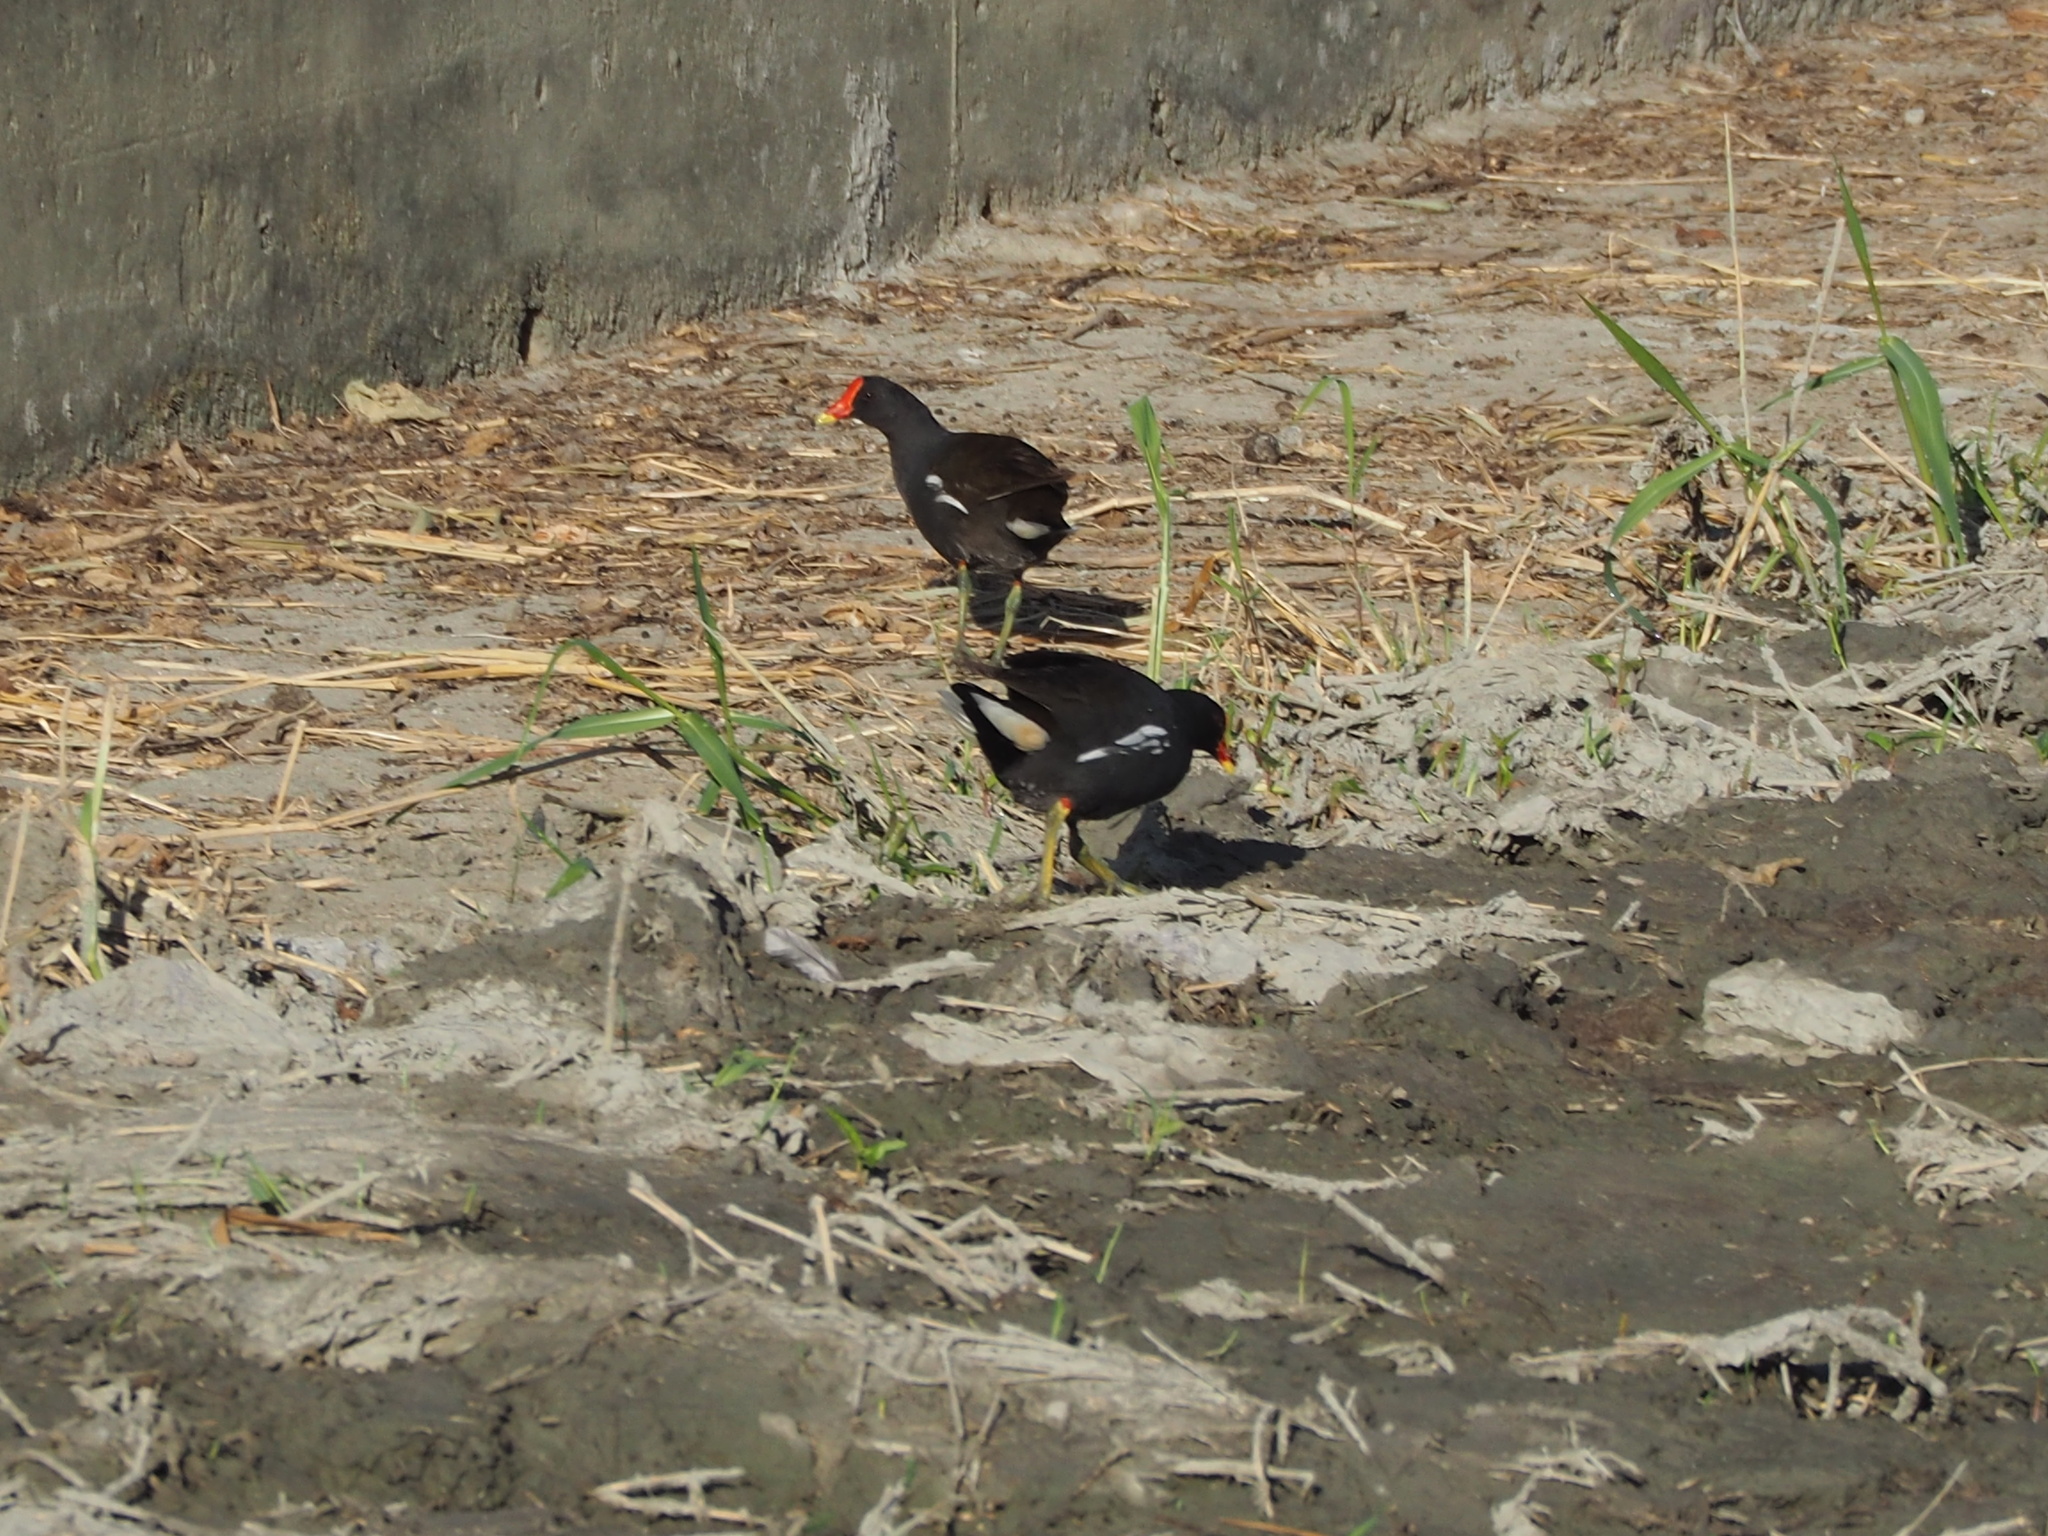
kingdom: Animalia
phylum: Chordata
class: Aves
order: Gruiformes
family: Rallidae
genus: Gallinula
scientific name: Gallinula chloropus
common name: Common moorhen
